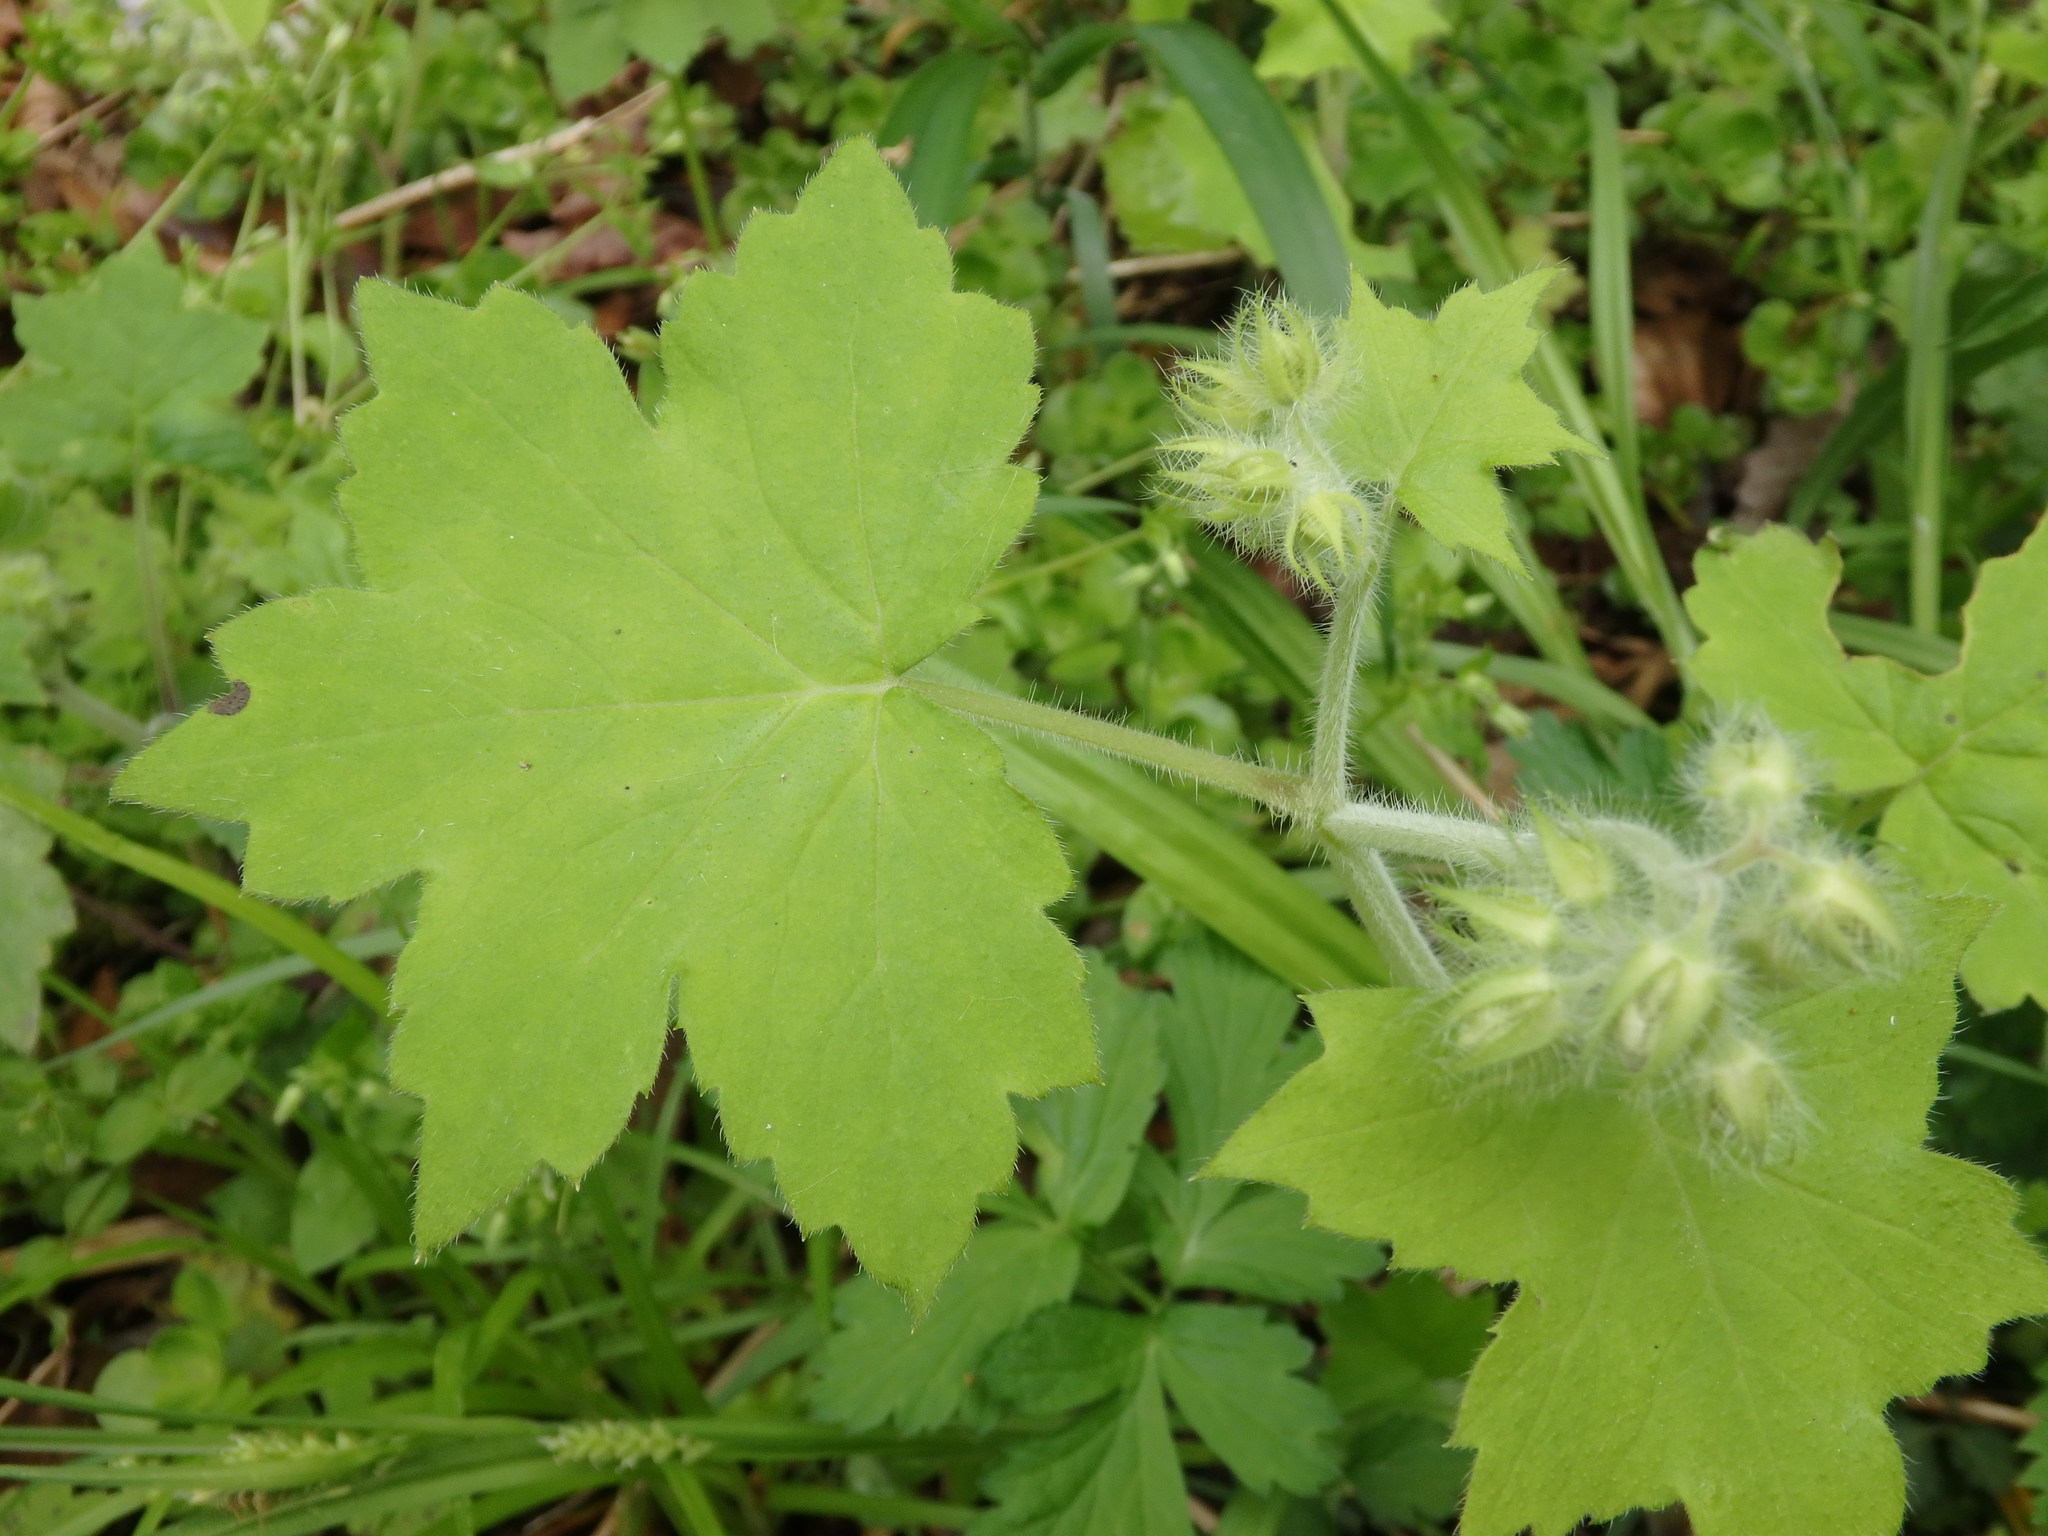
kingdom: Plantae
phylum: Tracheophyta
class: Magnoliopsida
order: Boraginales
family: Hydrophyllaceae
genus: Hydrophyllum
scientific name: Hydrophyllum appendiculatum
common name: Appendaged waterleaf
